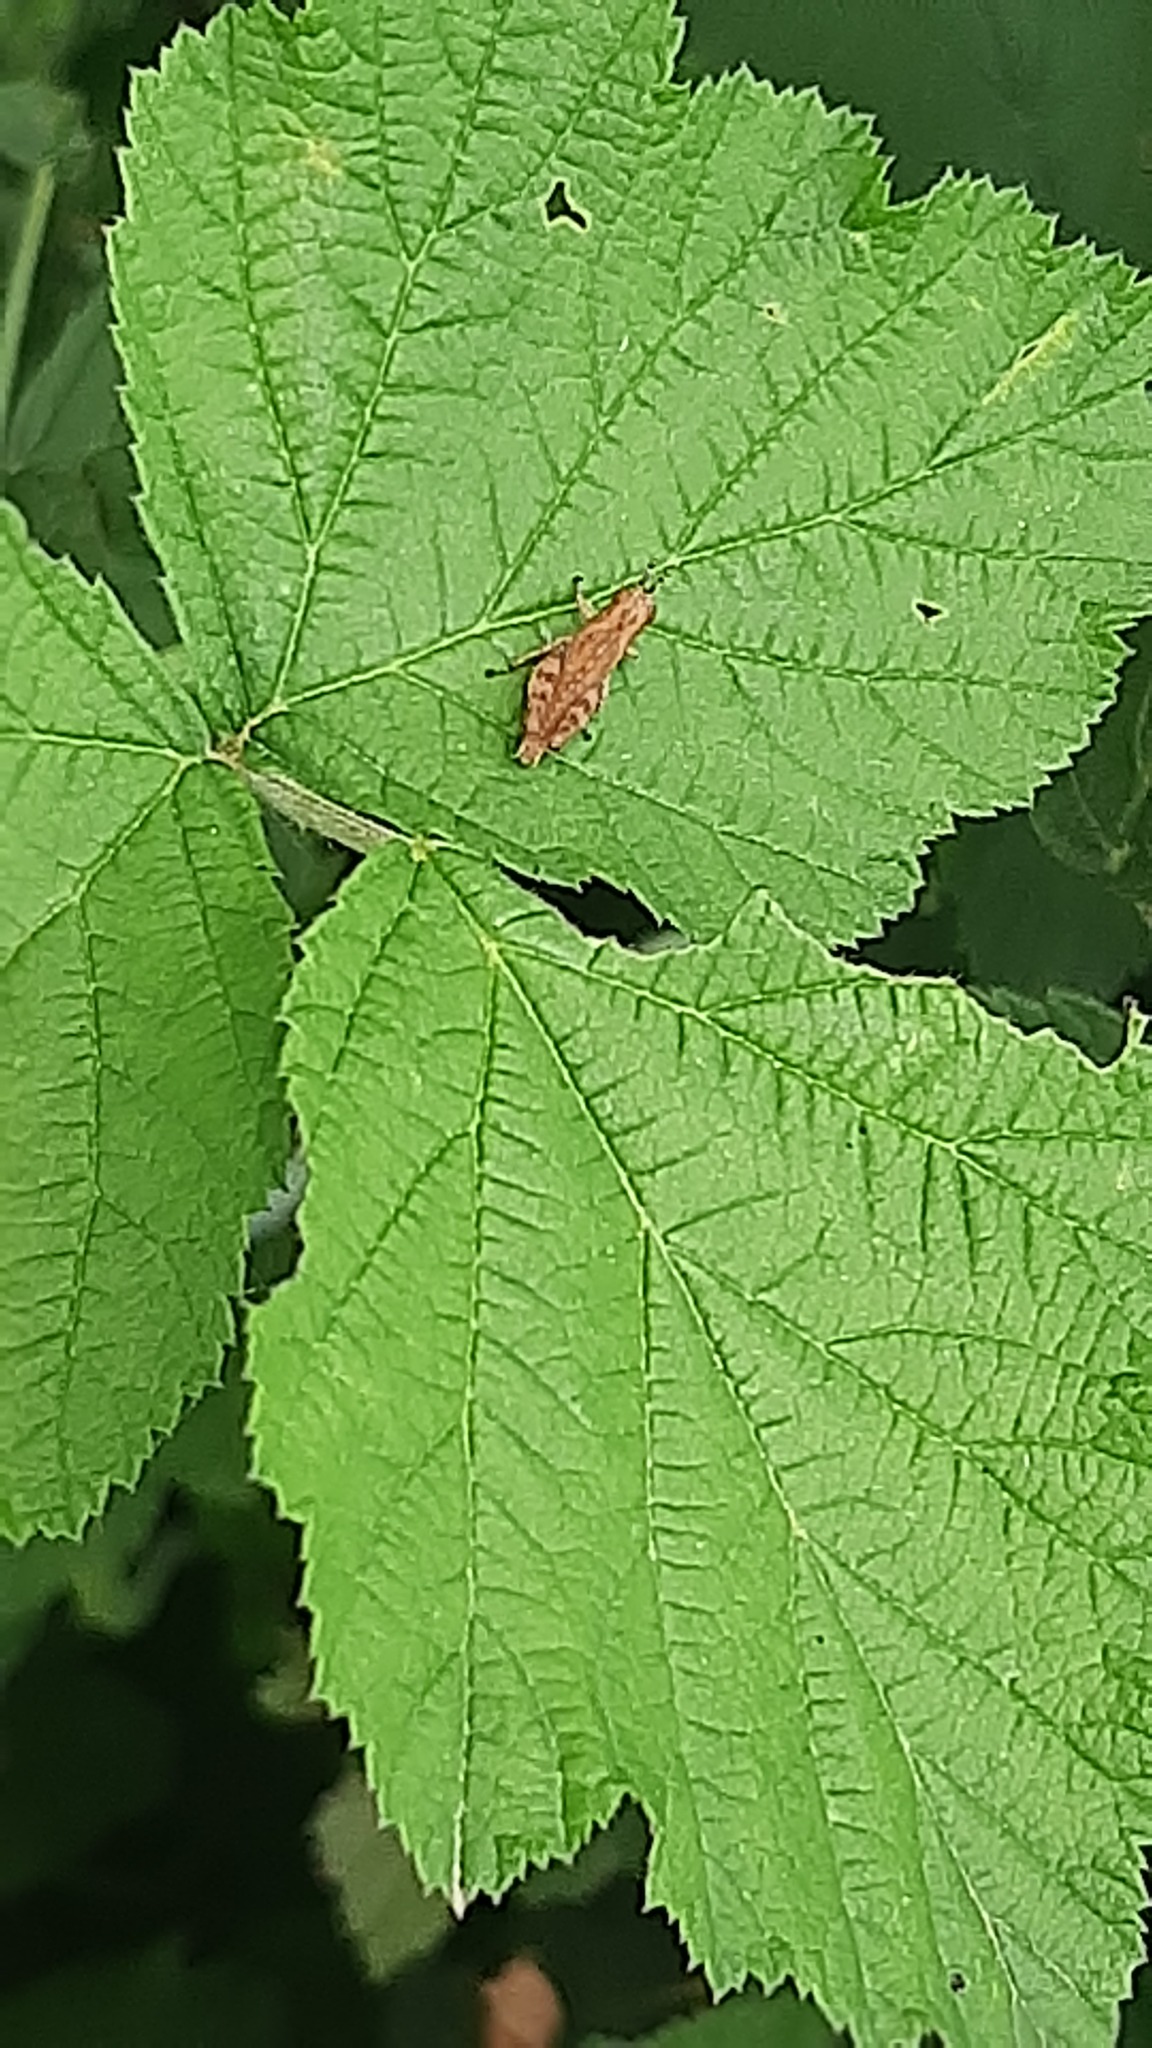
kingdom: Animalia
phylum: Arthropoda
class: Insecta
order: Orthoptera
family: Acrididae
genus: Pezotettix
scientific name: Pezotettix giornae
